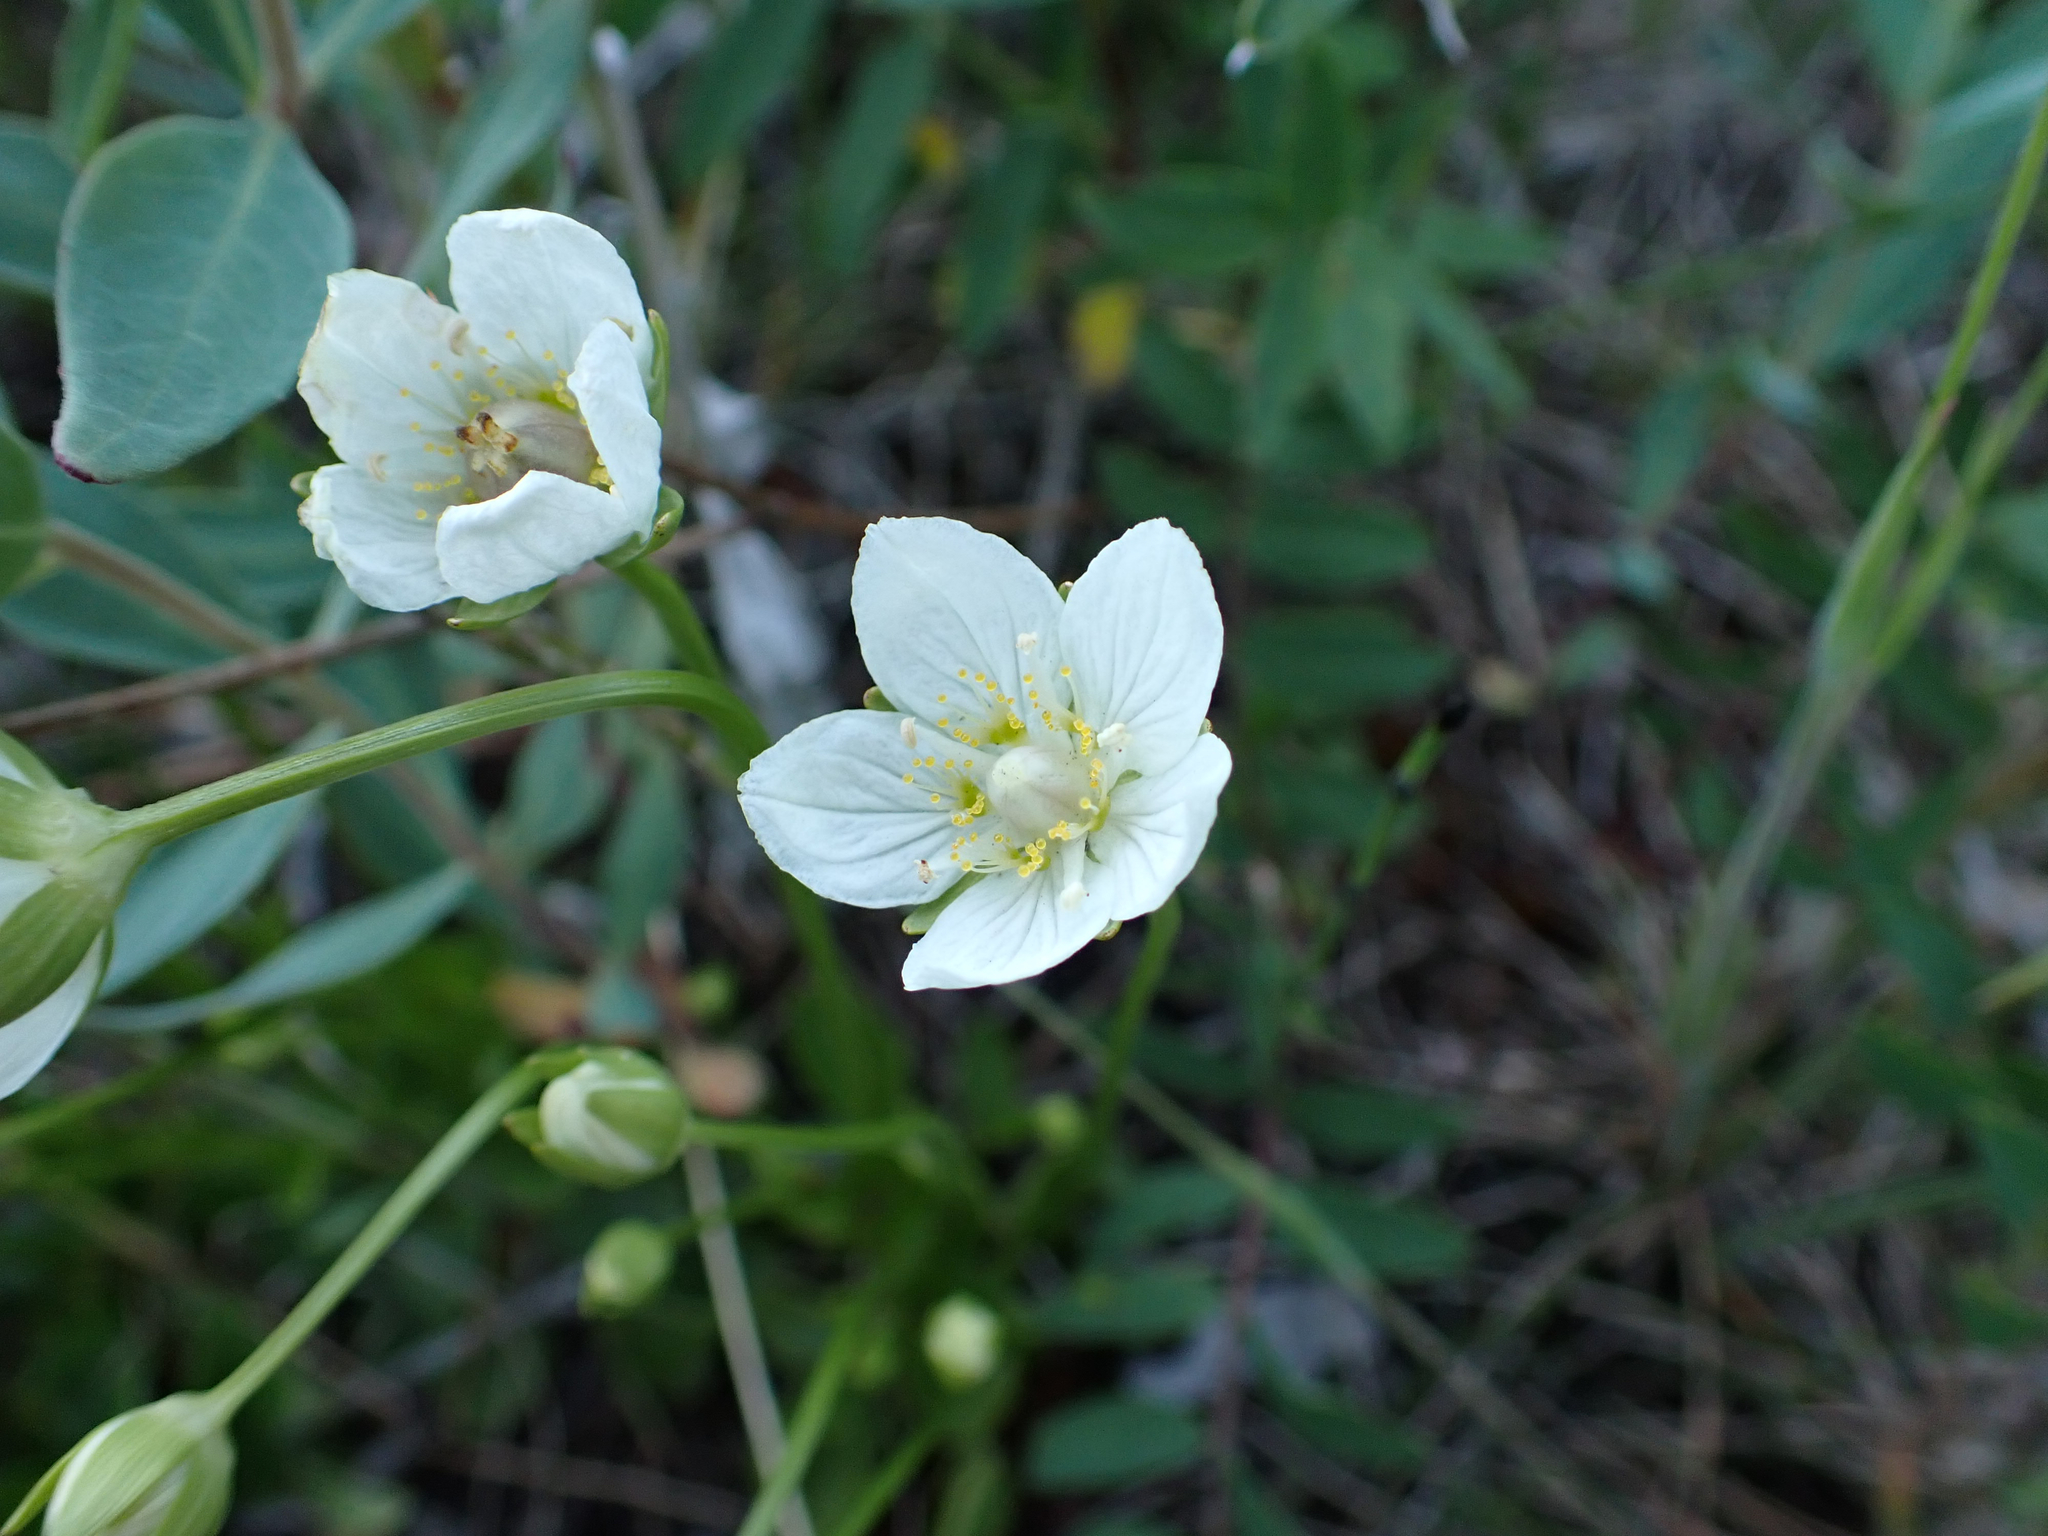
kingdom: Plantae
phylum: Tracheophyta
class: Magnoliopsida
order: Celastrales
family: Parnassiaceae
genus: Parnassia
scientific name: Parnassia palustris
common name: Grass-of-parnassus
